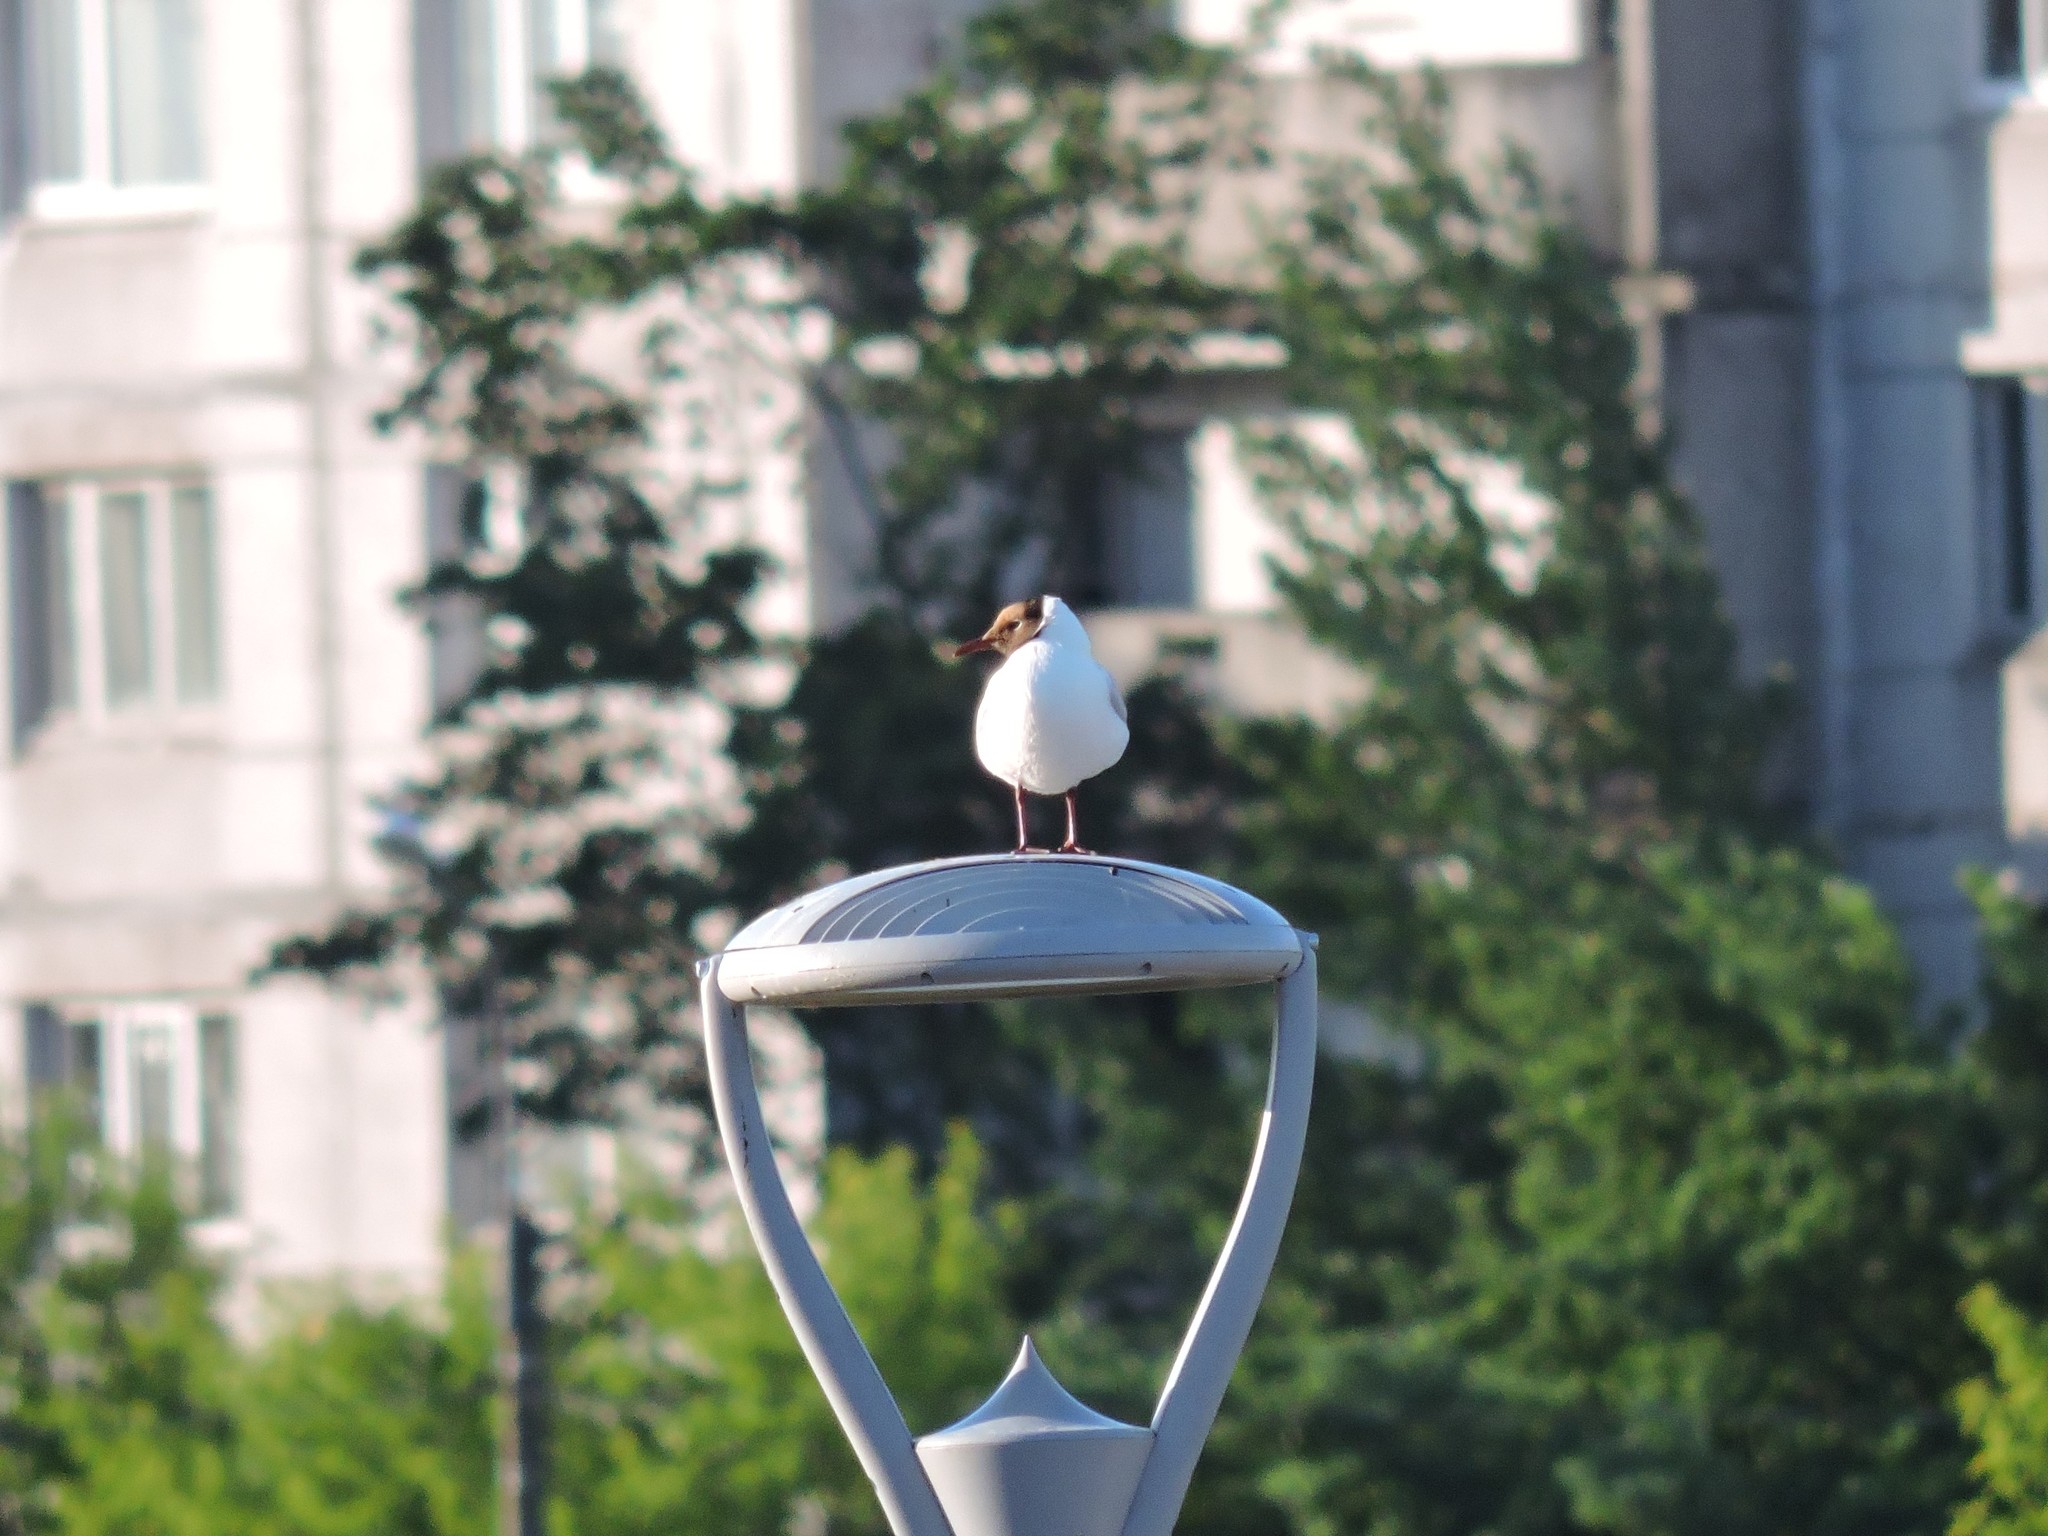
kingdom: Animalia
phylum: Chordata
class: Aves
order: Charadriiformes
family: Laridae
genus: Chroicocephalus
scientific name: Chroicocephalus ridibundus
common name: Black-headed gull
